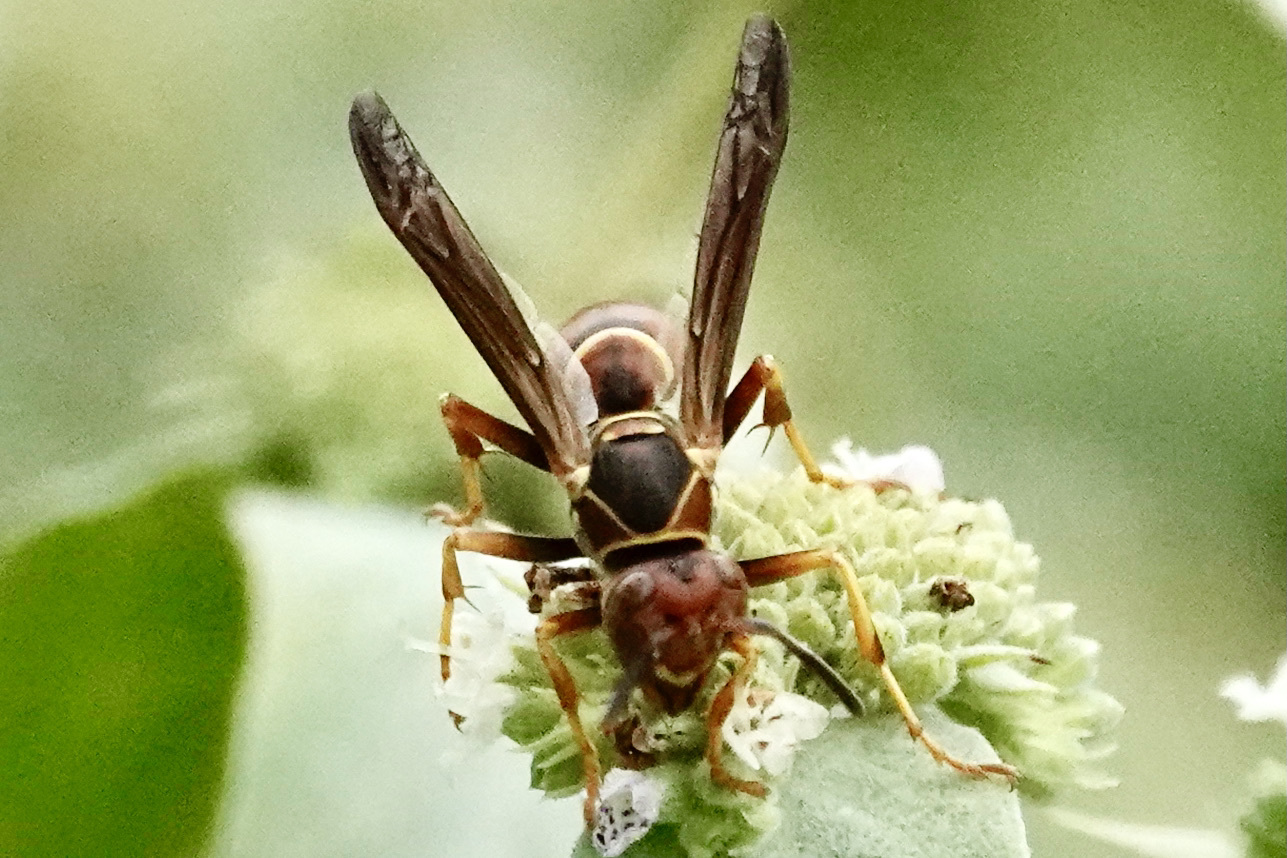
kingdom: Animalia
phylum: Arthropoda
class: Insecta
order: Hymenoptera
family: Eumenidae
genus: Polistes
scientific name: Polistes dorsalis
